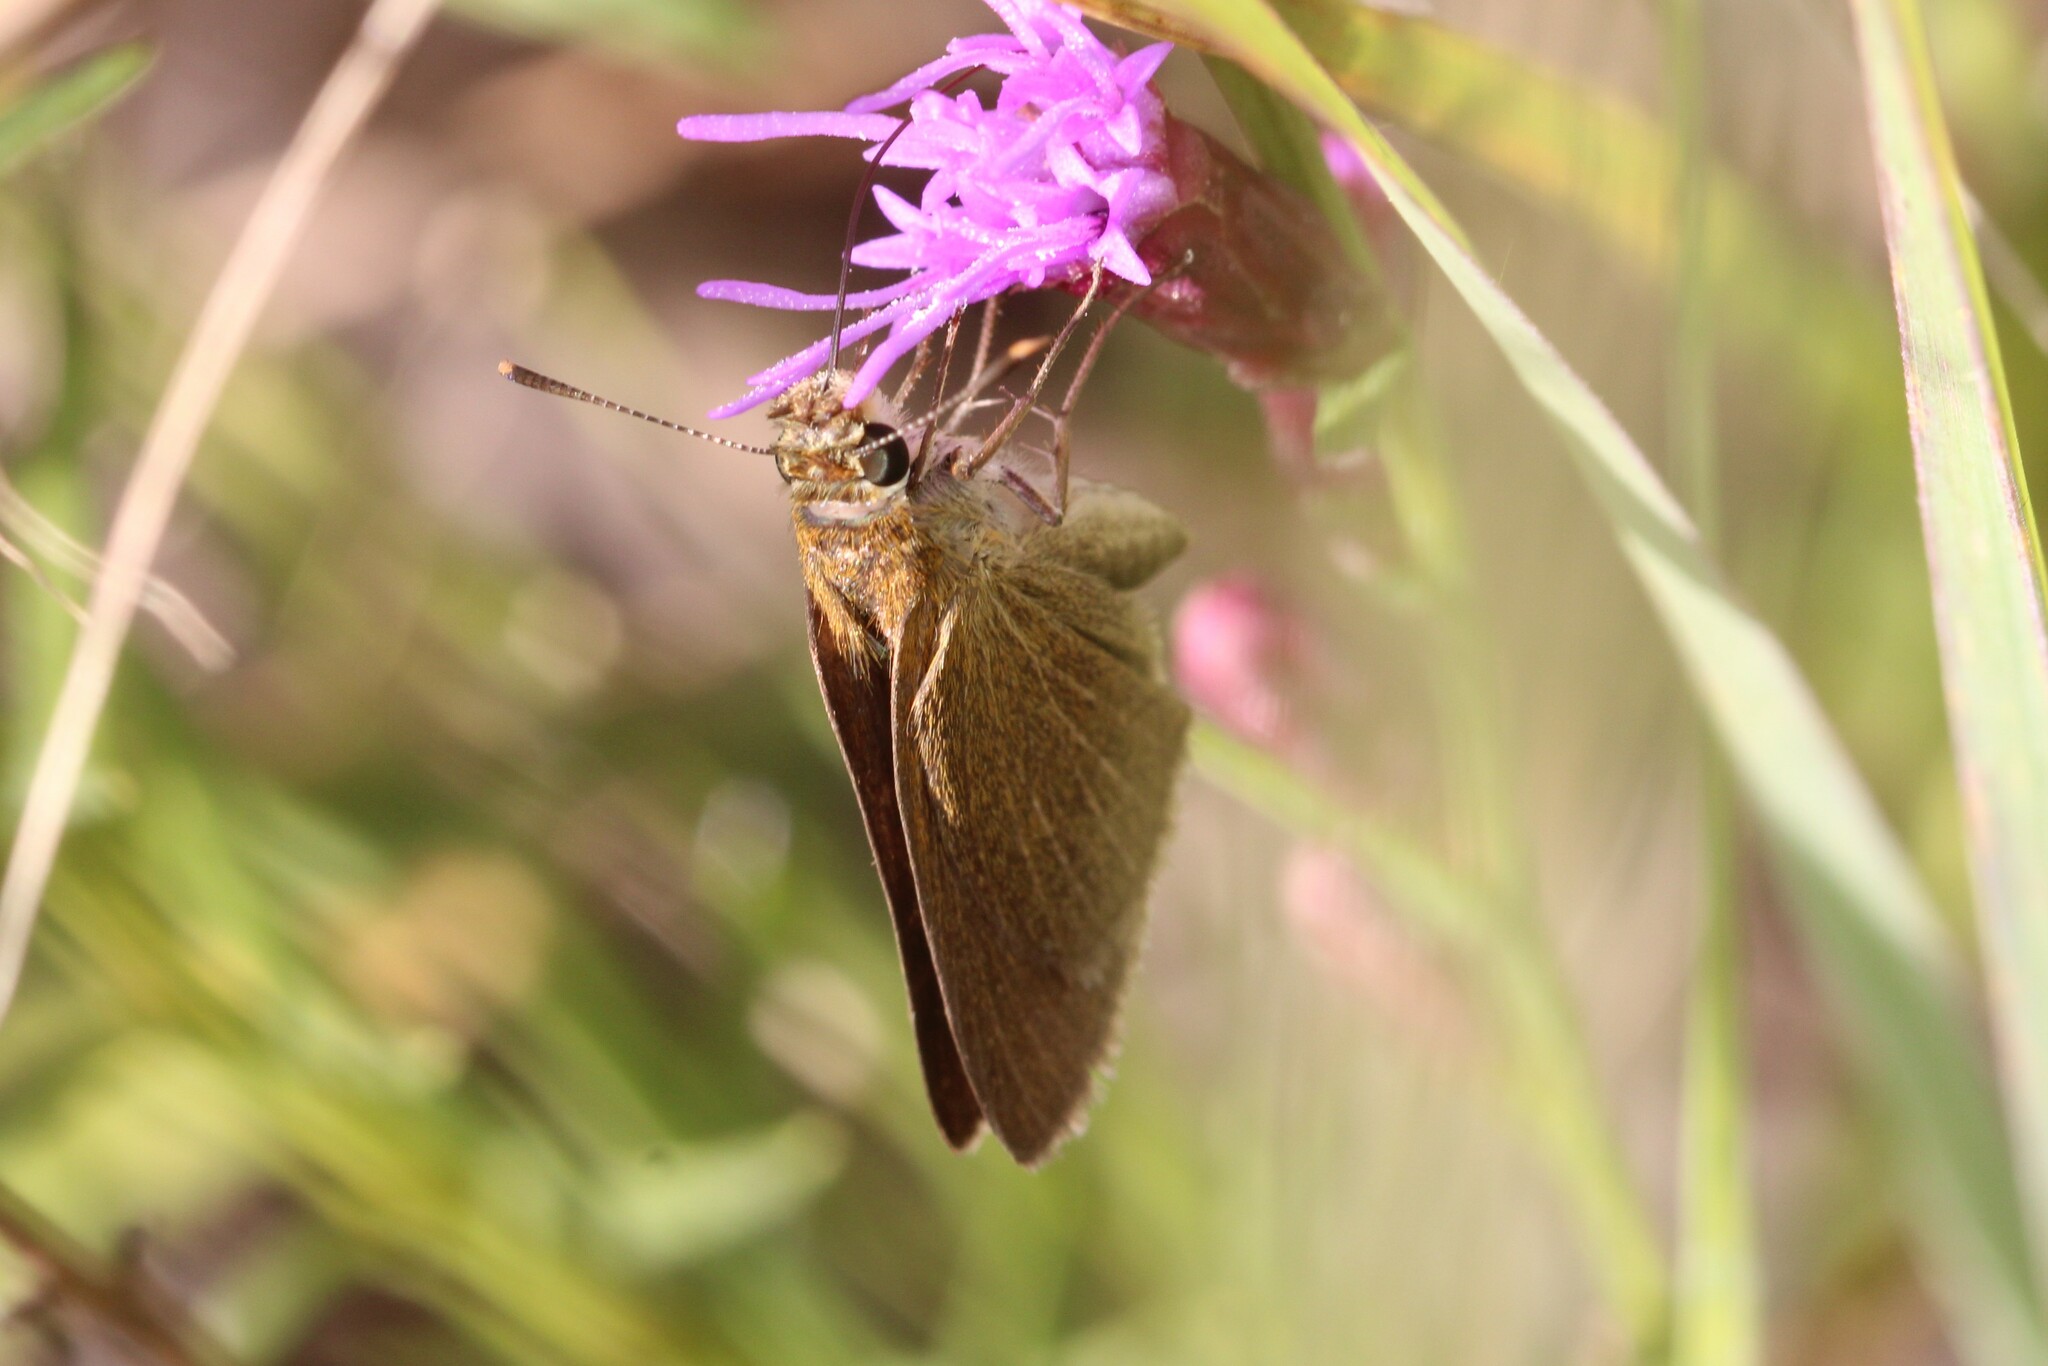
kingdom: Animalia
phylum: Arthropoda
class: Insecta
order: Lepidoptera
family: Hesperiidae
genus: Nastra
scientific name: Nastra lherminier
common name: Swarthy skipper
